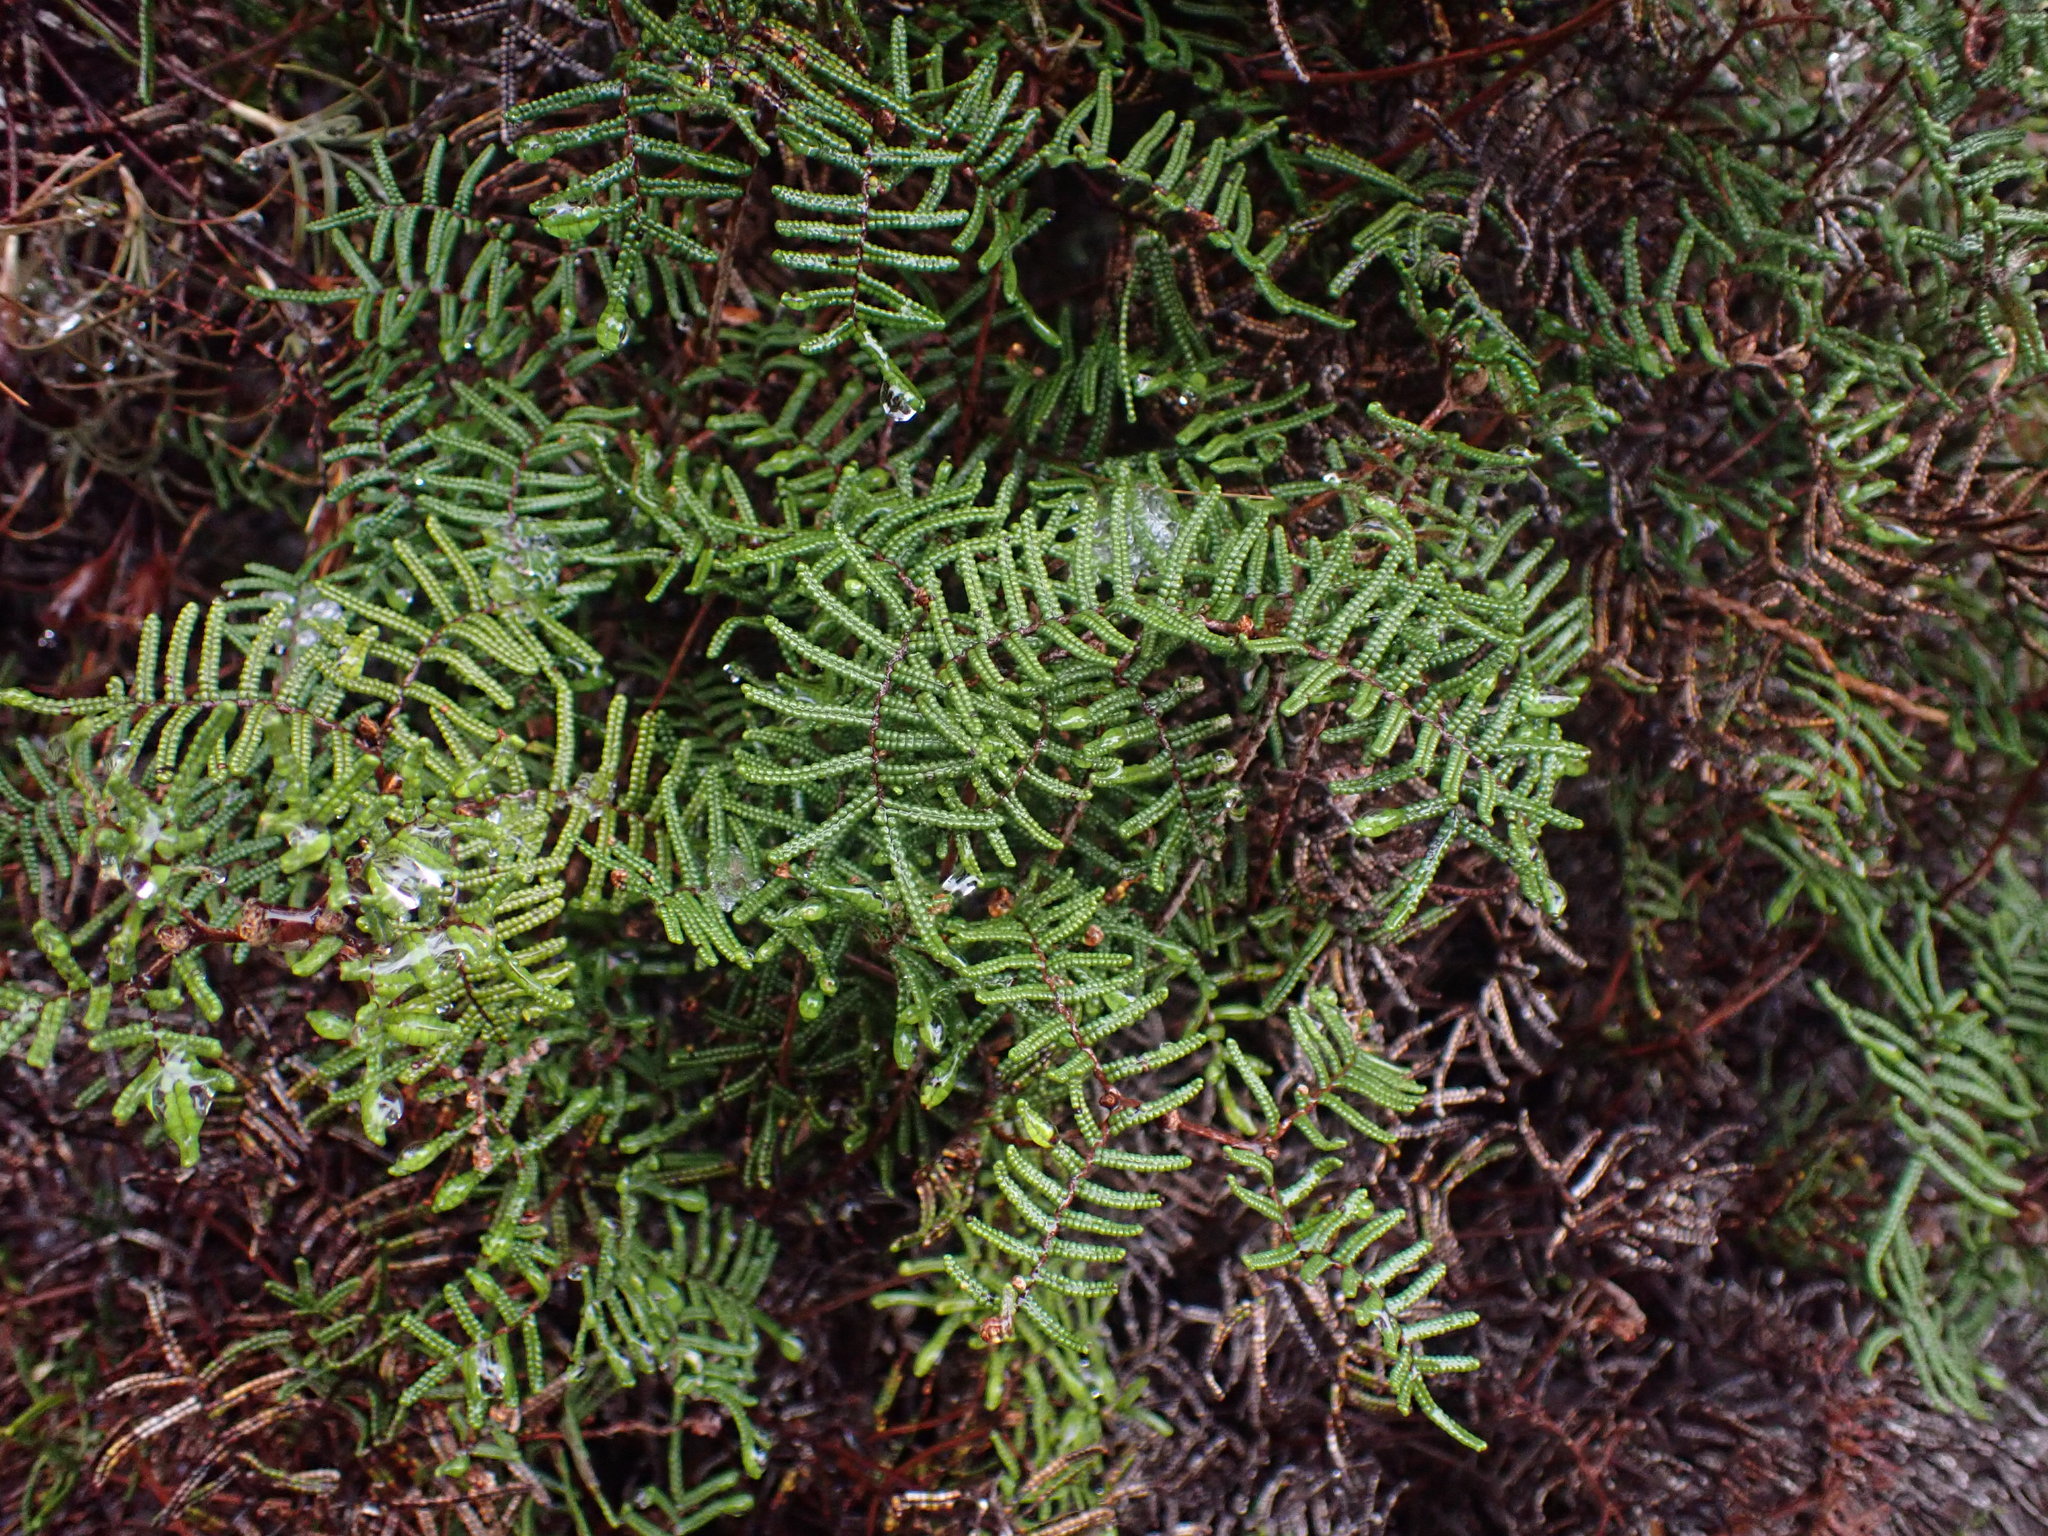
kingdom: Plantae
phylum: Tracheophyta
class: Polypodiopsida
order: Gleicheniales
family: Gleicheniaceae
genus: Gleichenia
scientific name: Gleichenia alpina
